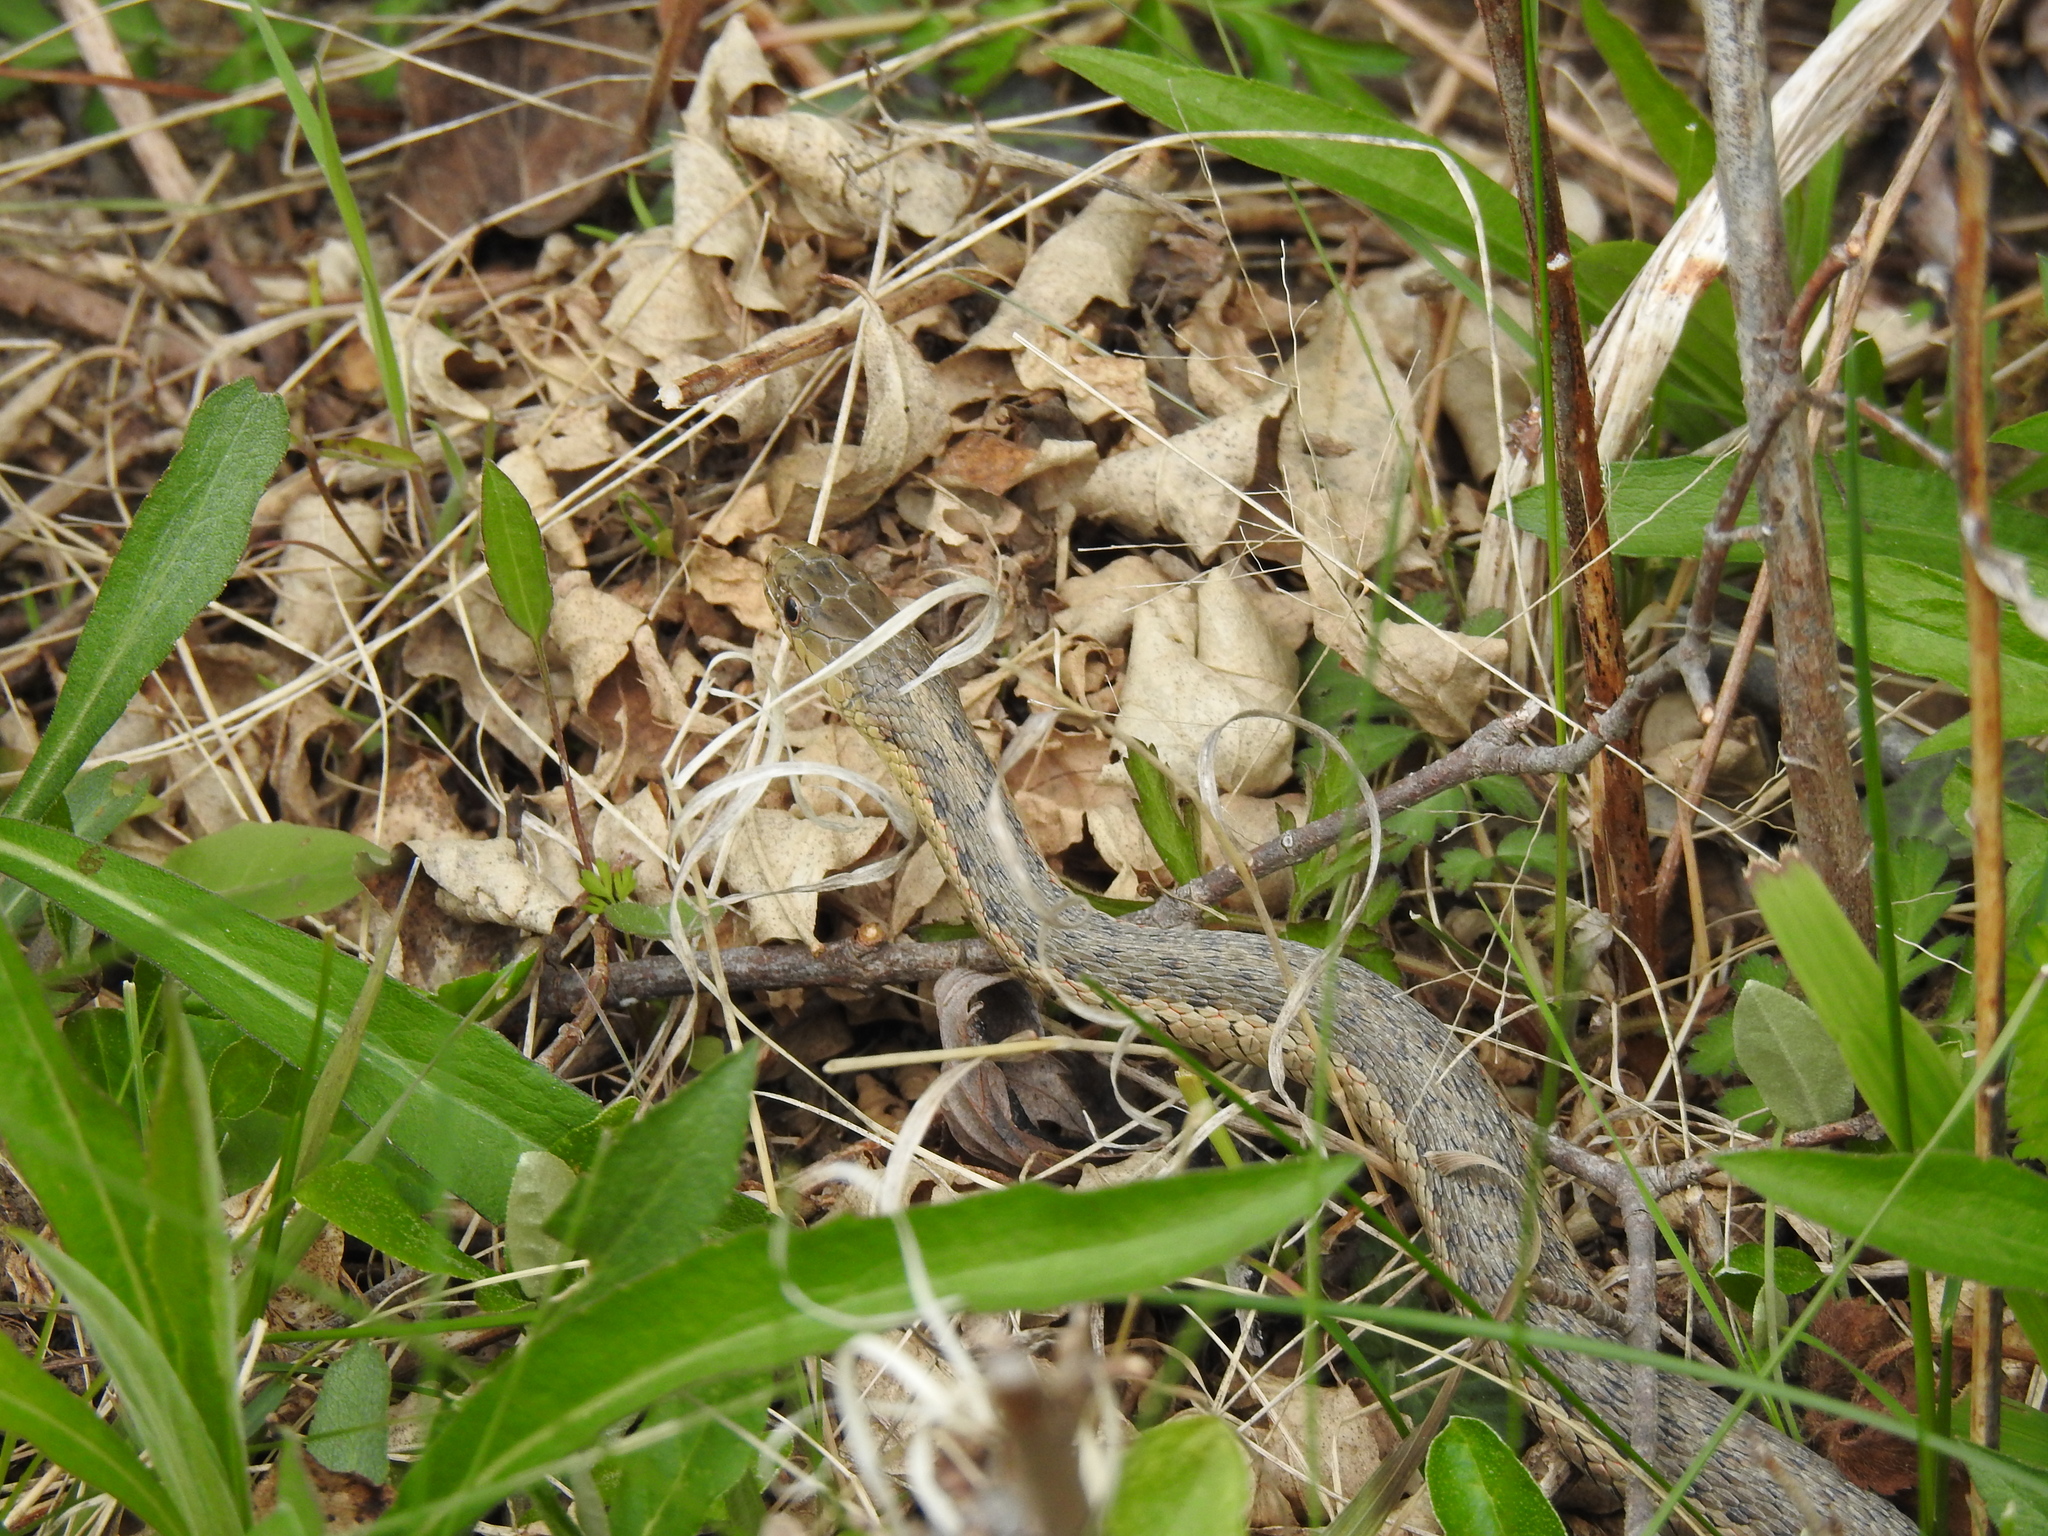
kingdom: Animalia
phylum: Chordata
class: Squamata
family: Colubridae
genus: Thamnophis
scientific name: Thamnophis sirtalis
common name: Common garter snake
